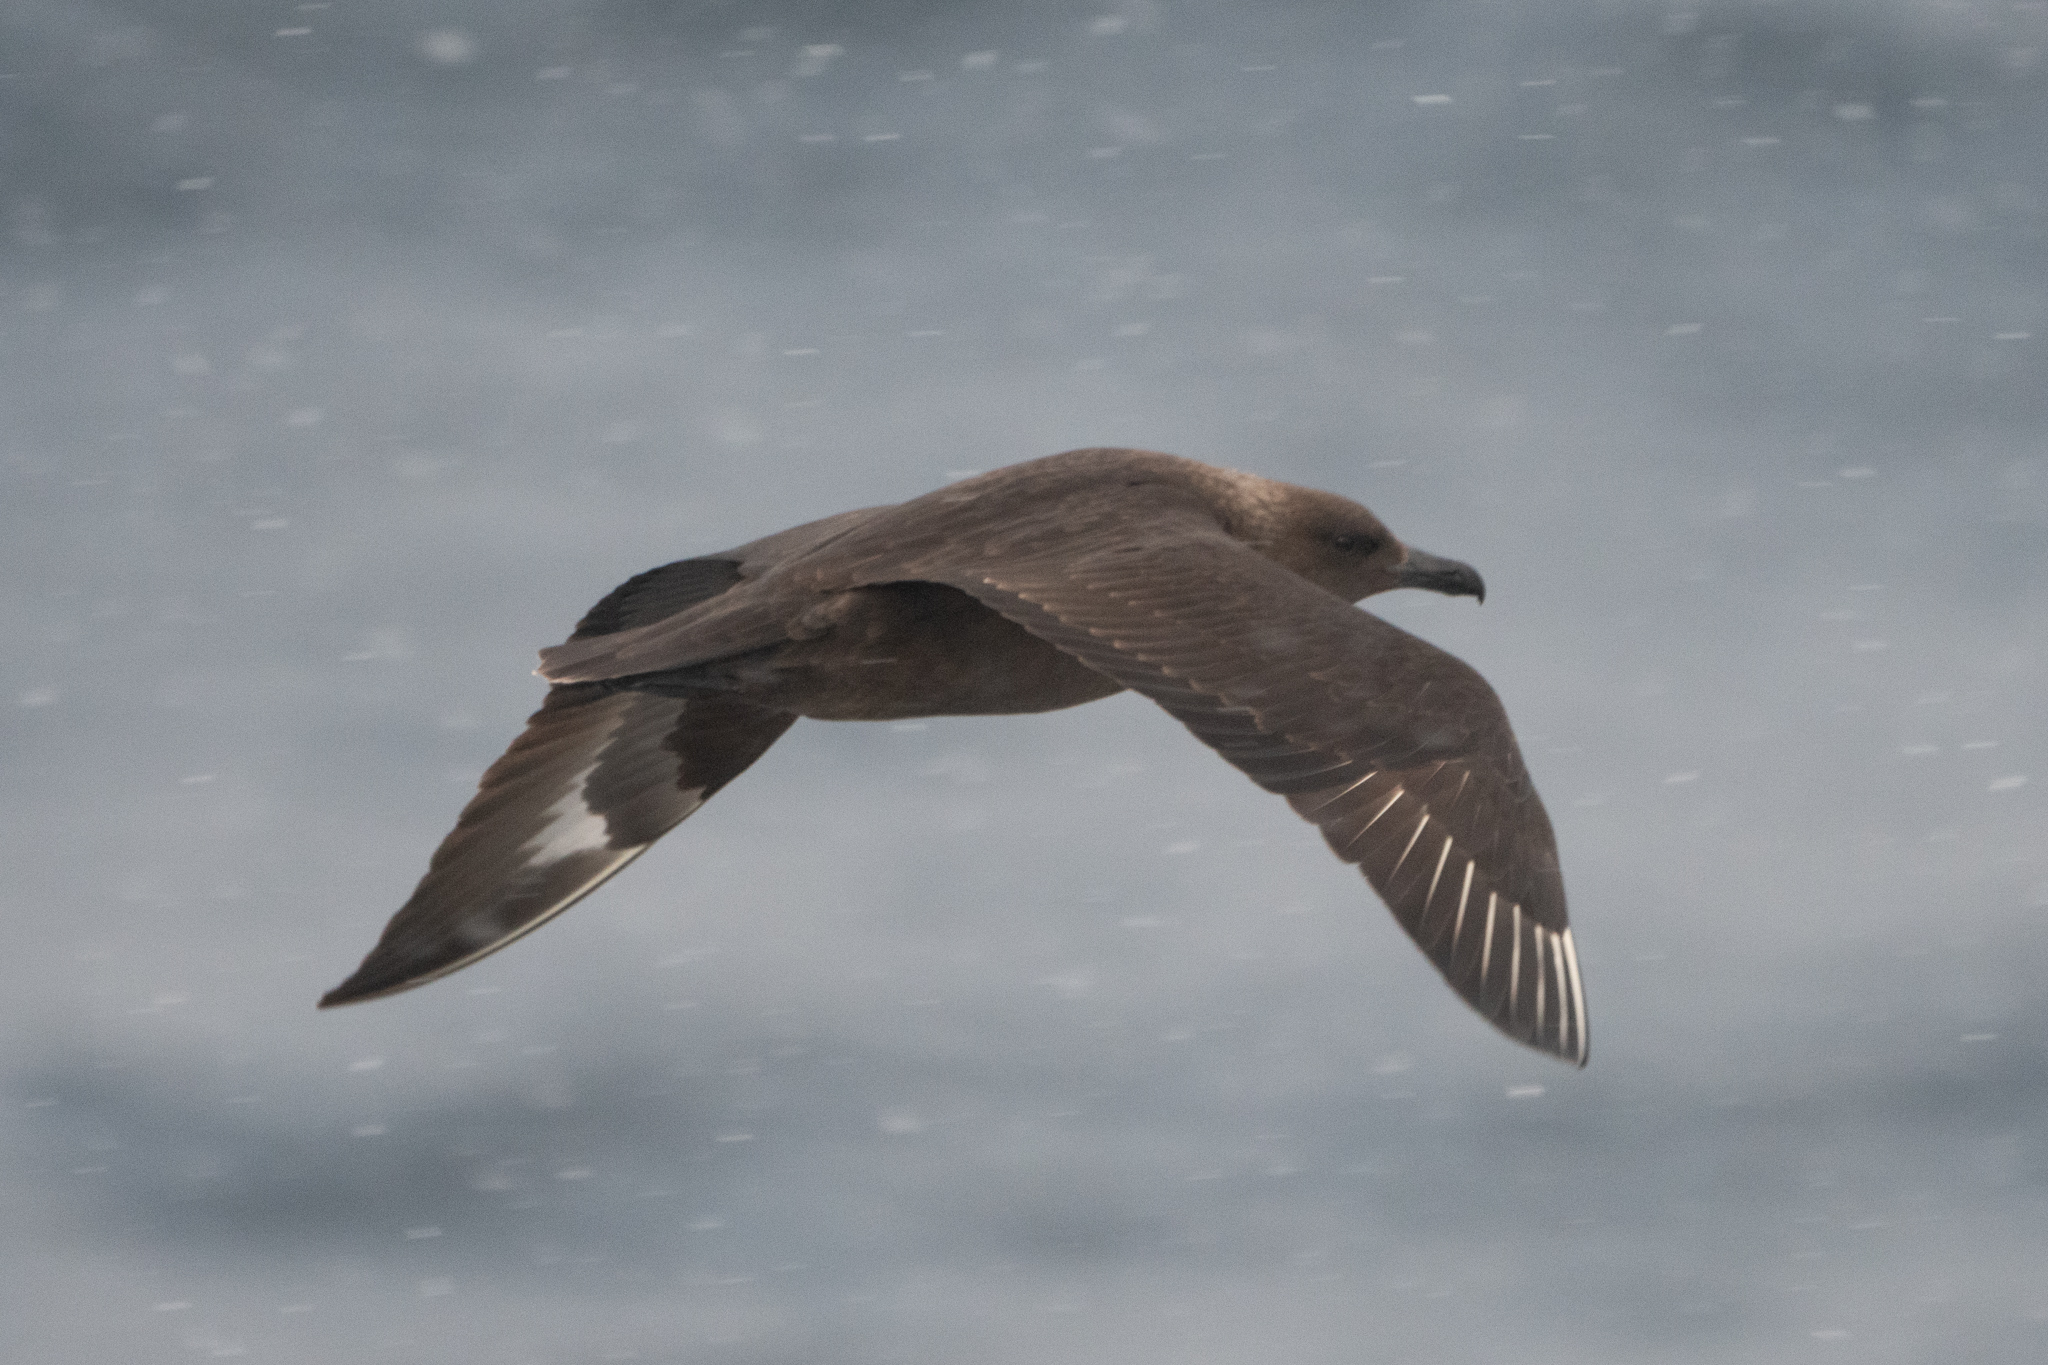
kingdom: Animalia
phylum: Chordata
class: Aves
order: Charadriiformes
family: Stercorariidae
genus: Stercorarius
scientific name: Stercorarius maccormicki
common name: South polar skua
